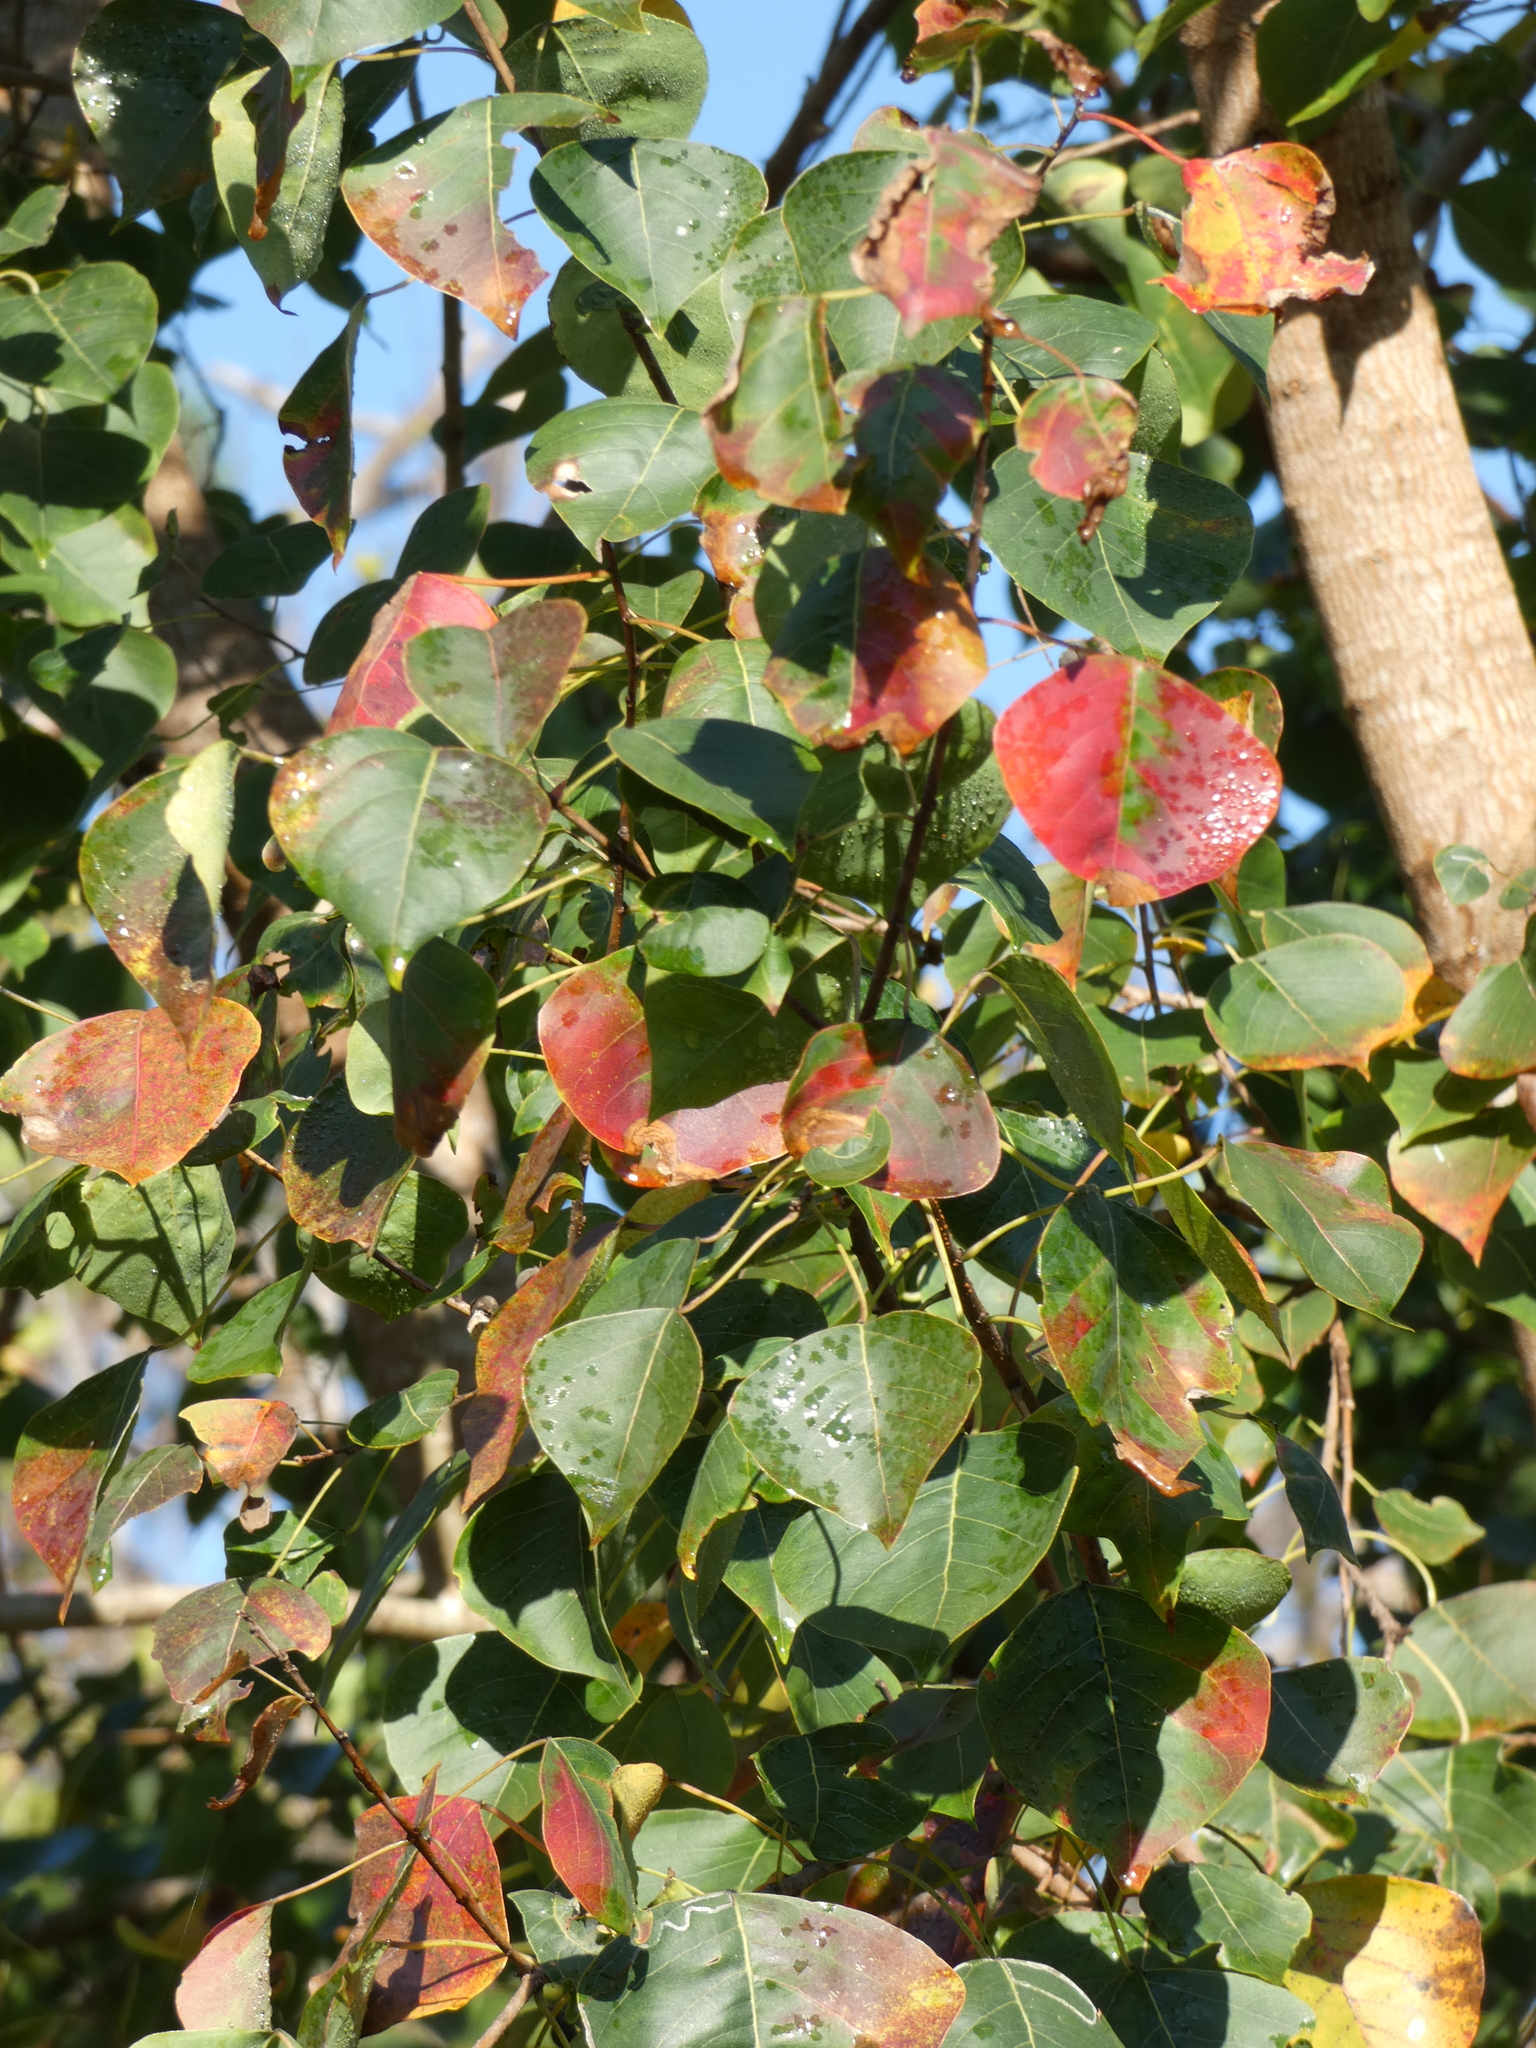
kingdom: Plantae
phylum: Tracheophyta
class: Magnoliopsida
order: Malpighiales
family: Euphorbiaceae
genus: Triadica
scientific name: Triadica sebifera
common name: Chinese tallow
